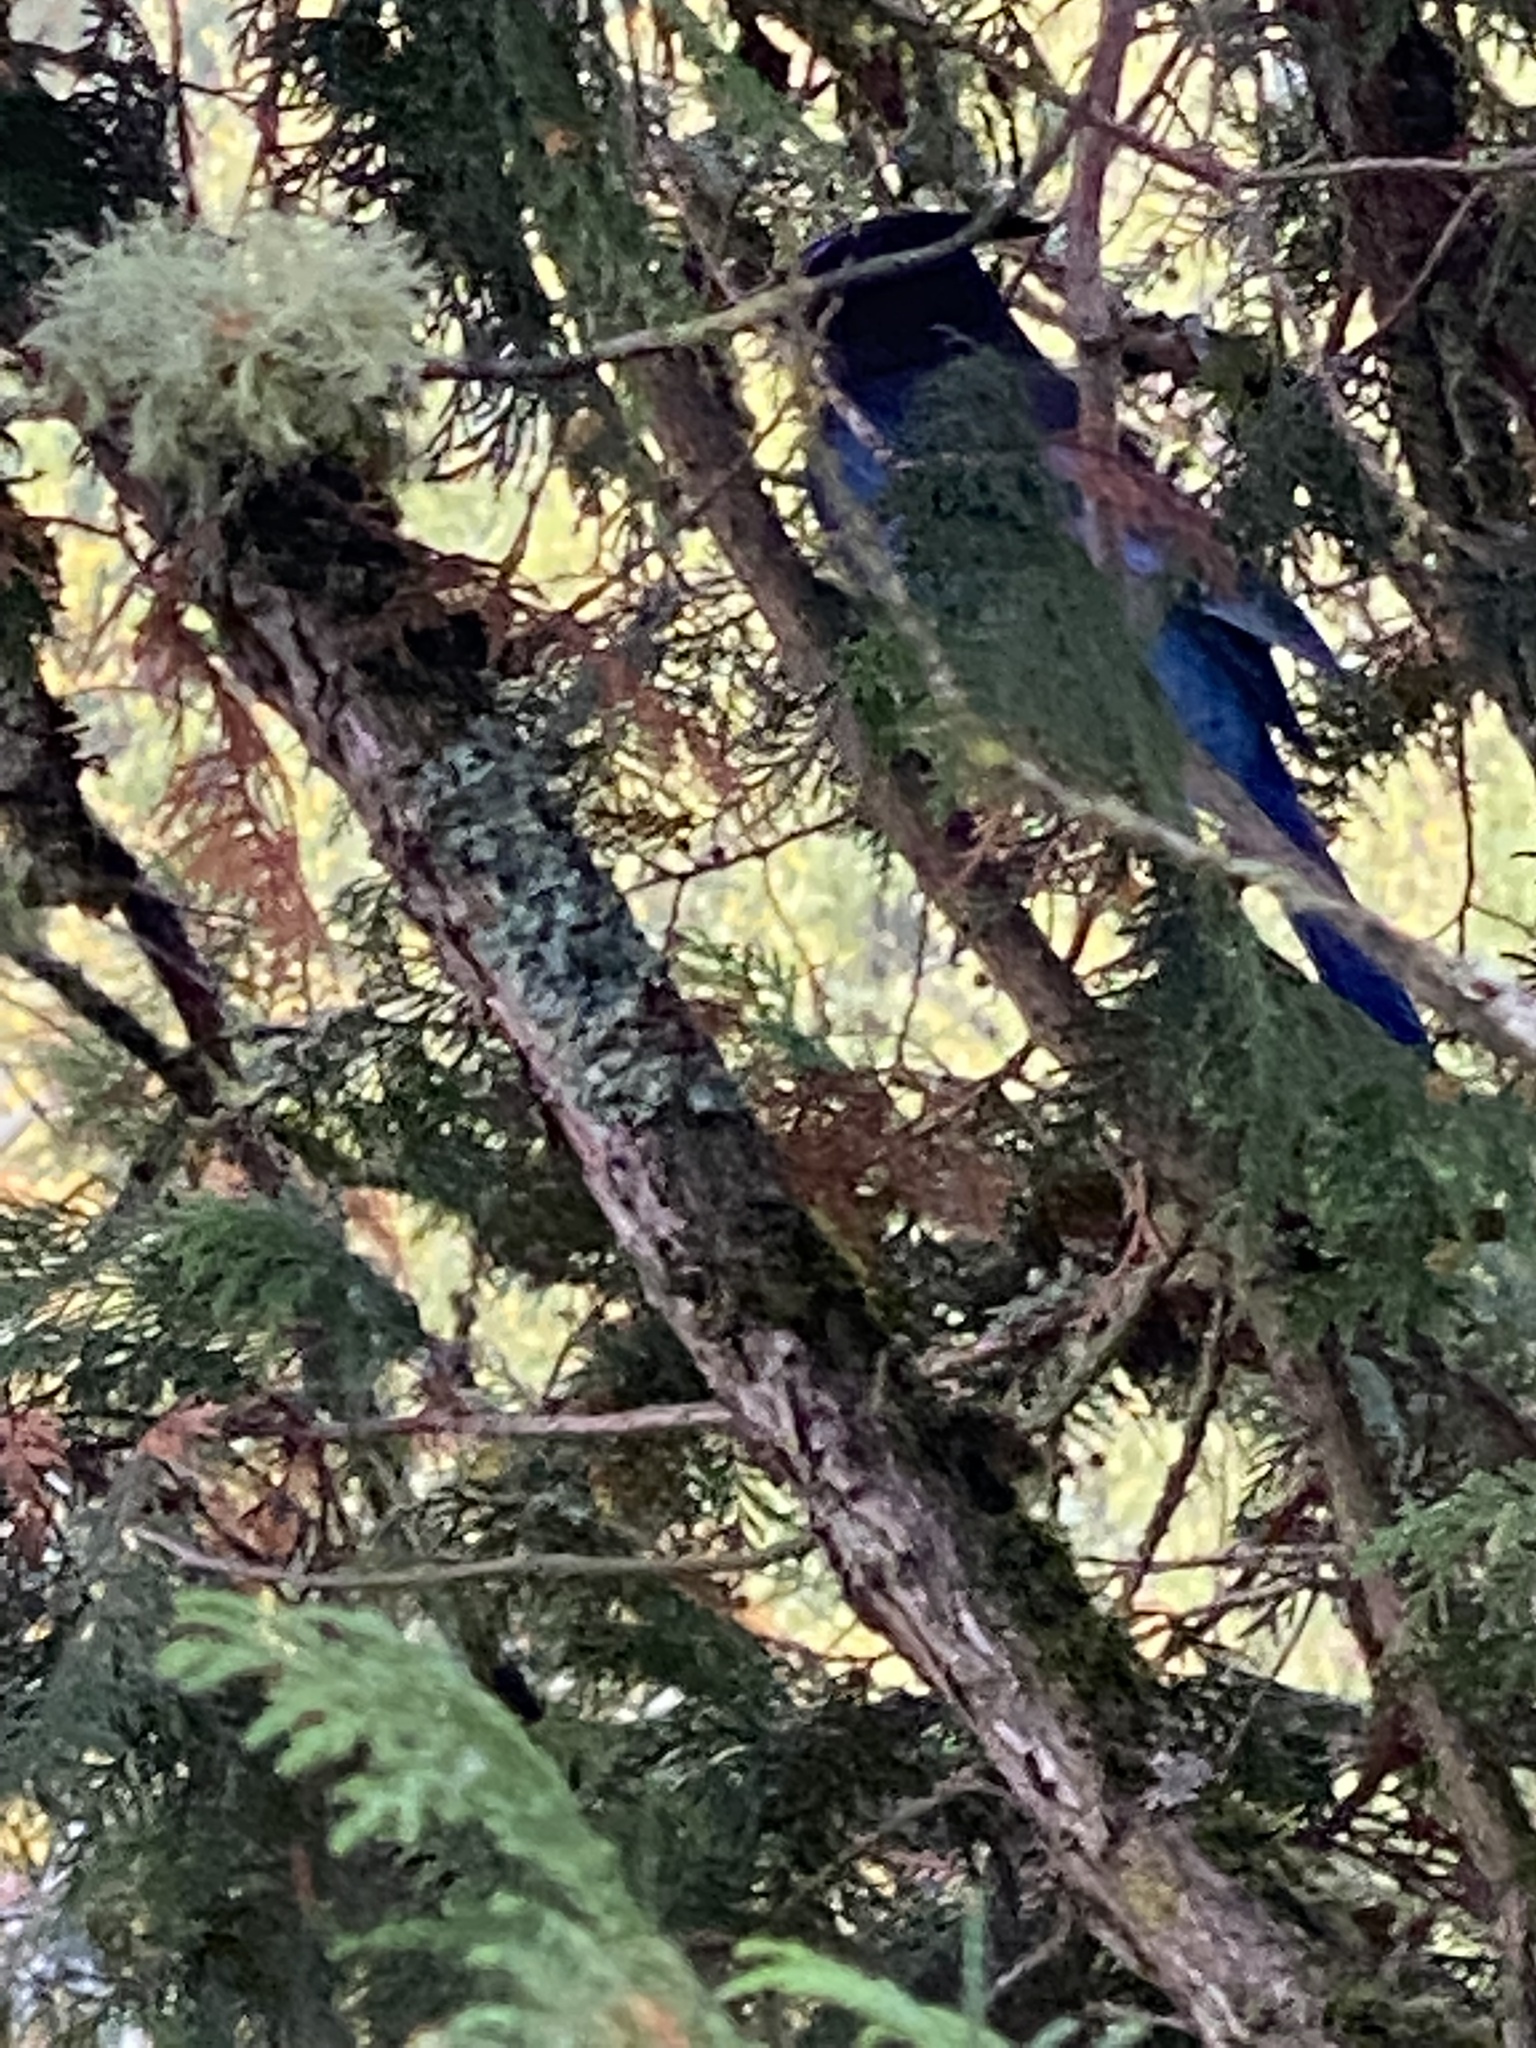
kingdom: Animalia
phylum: Chordata
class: Aves
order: Passeriformes
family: Corvidae
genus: Cyanocitta
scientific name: Cyanocitta stelleri
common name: Steller's jay
